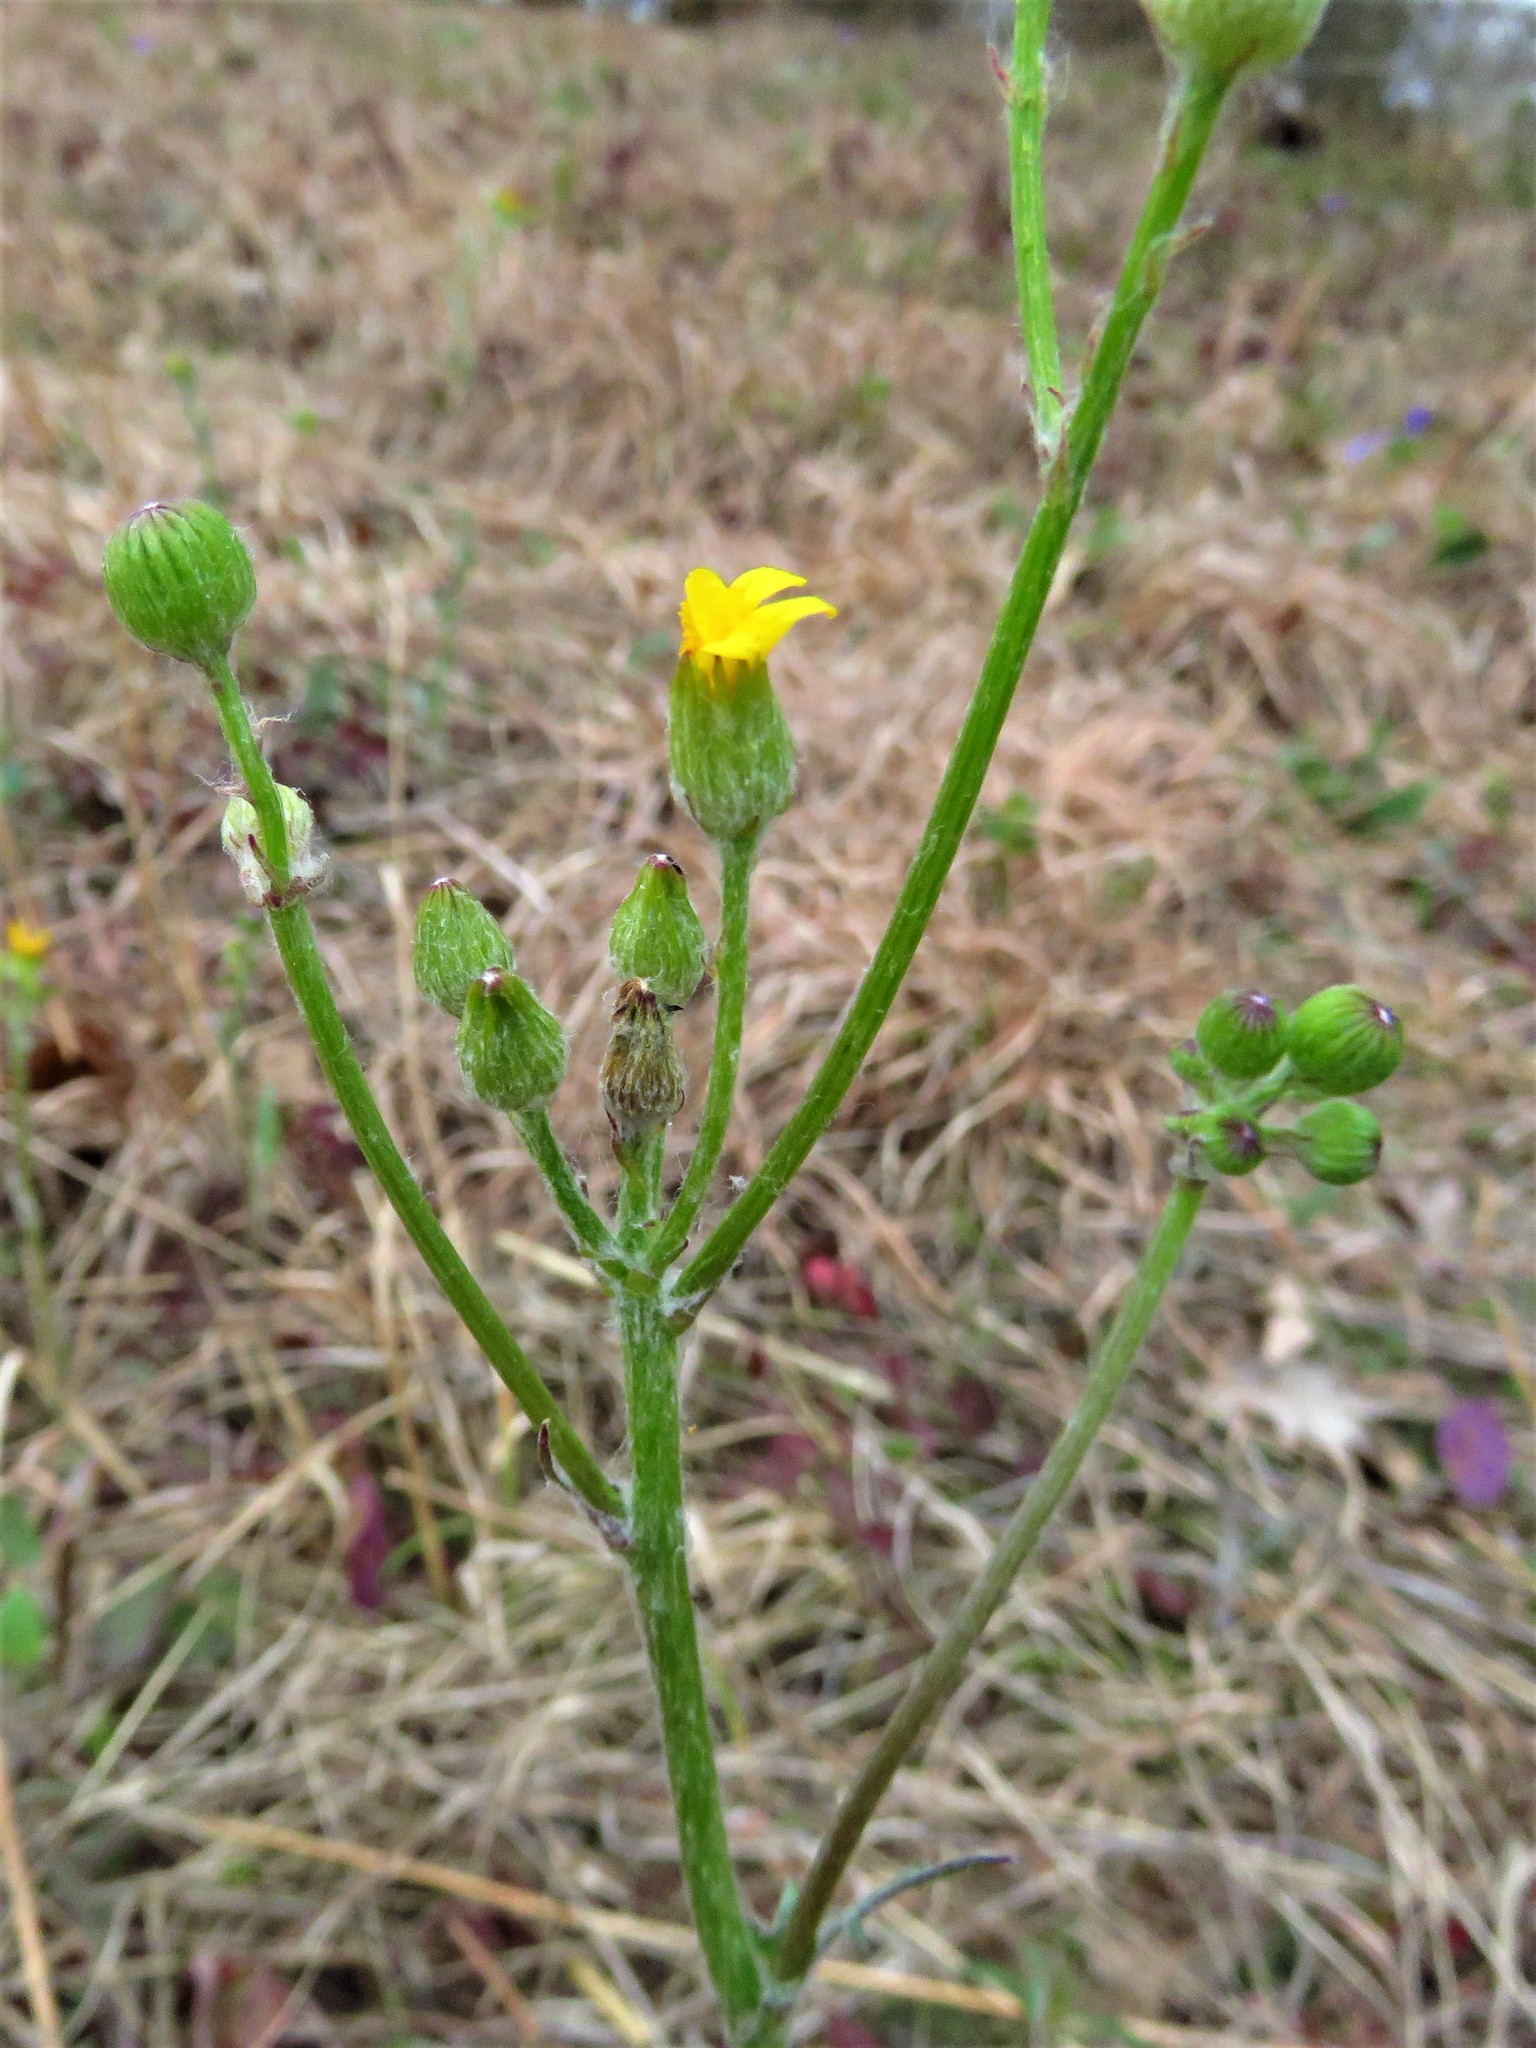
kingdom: Plantae
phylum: Tracheophyta
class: Magnoliopsida
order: Asterales
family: Asteraceae
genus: Packera
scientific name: Packera plattensis
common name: Prairie groundsel
